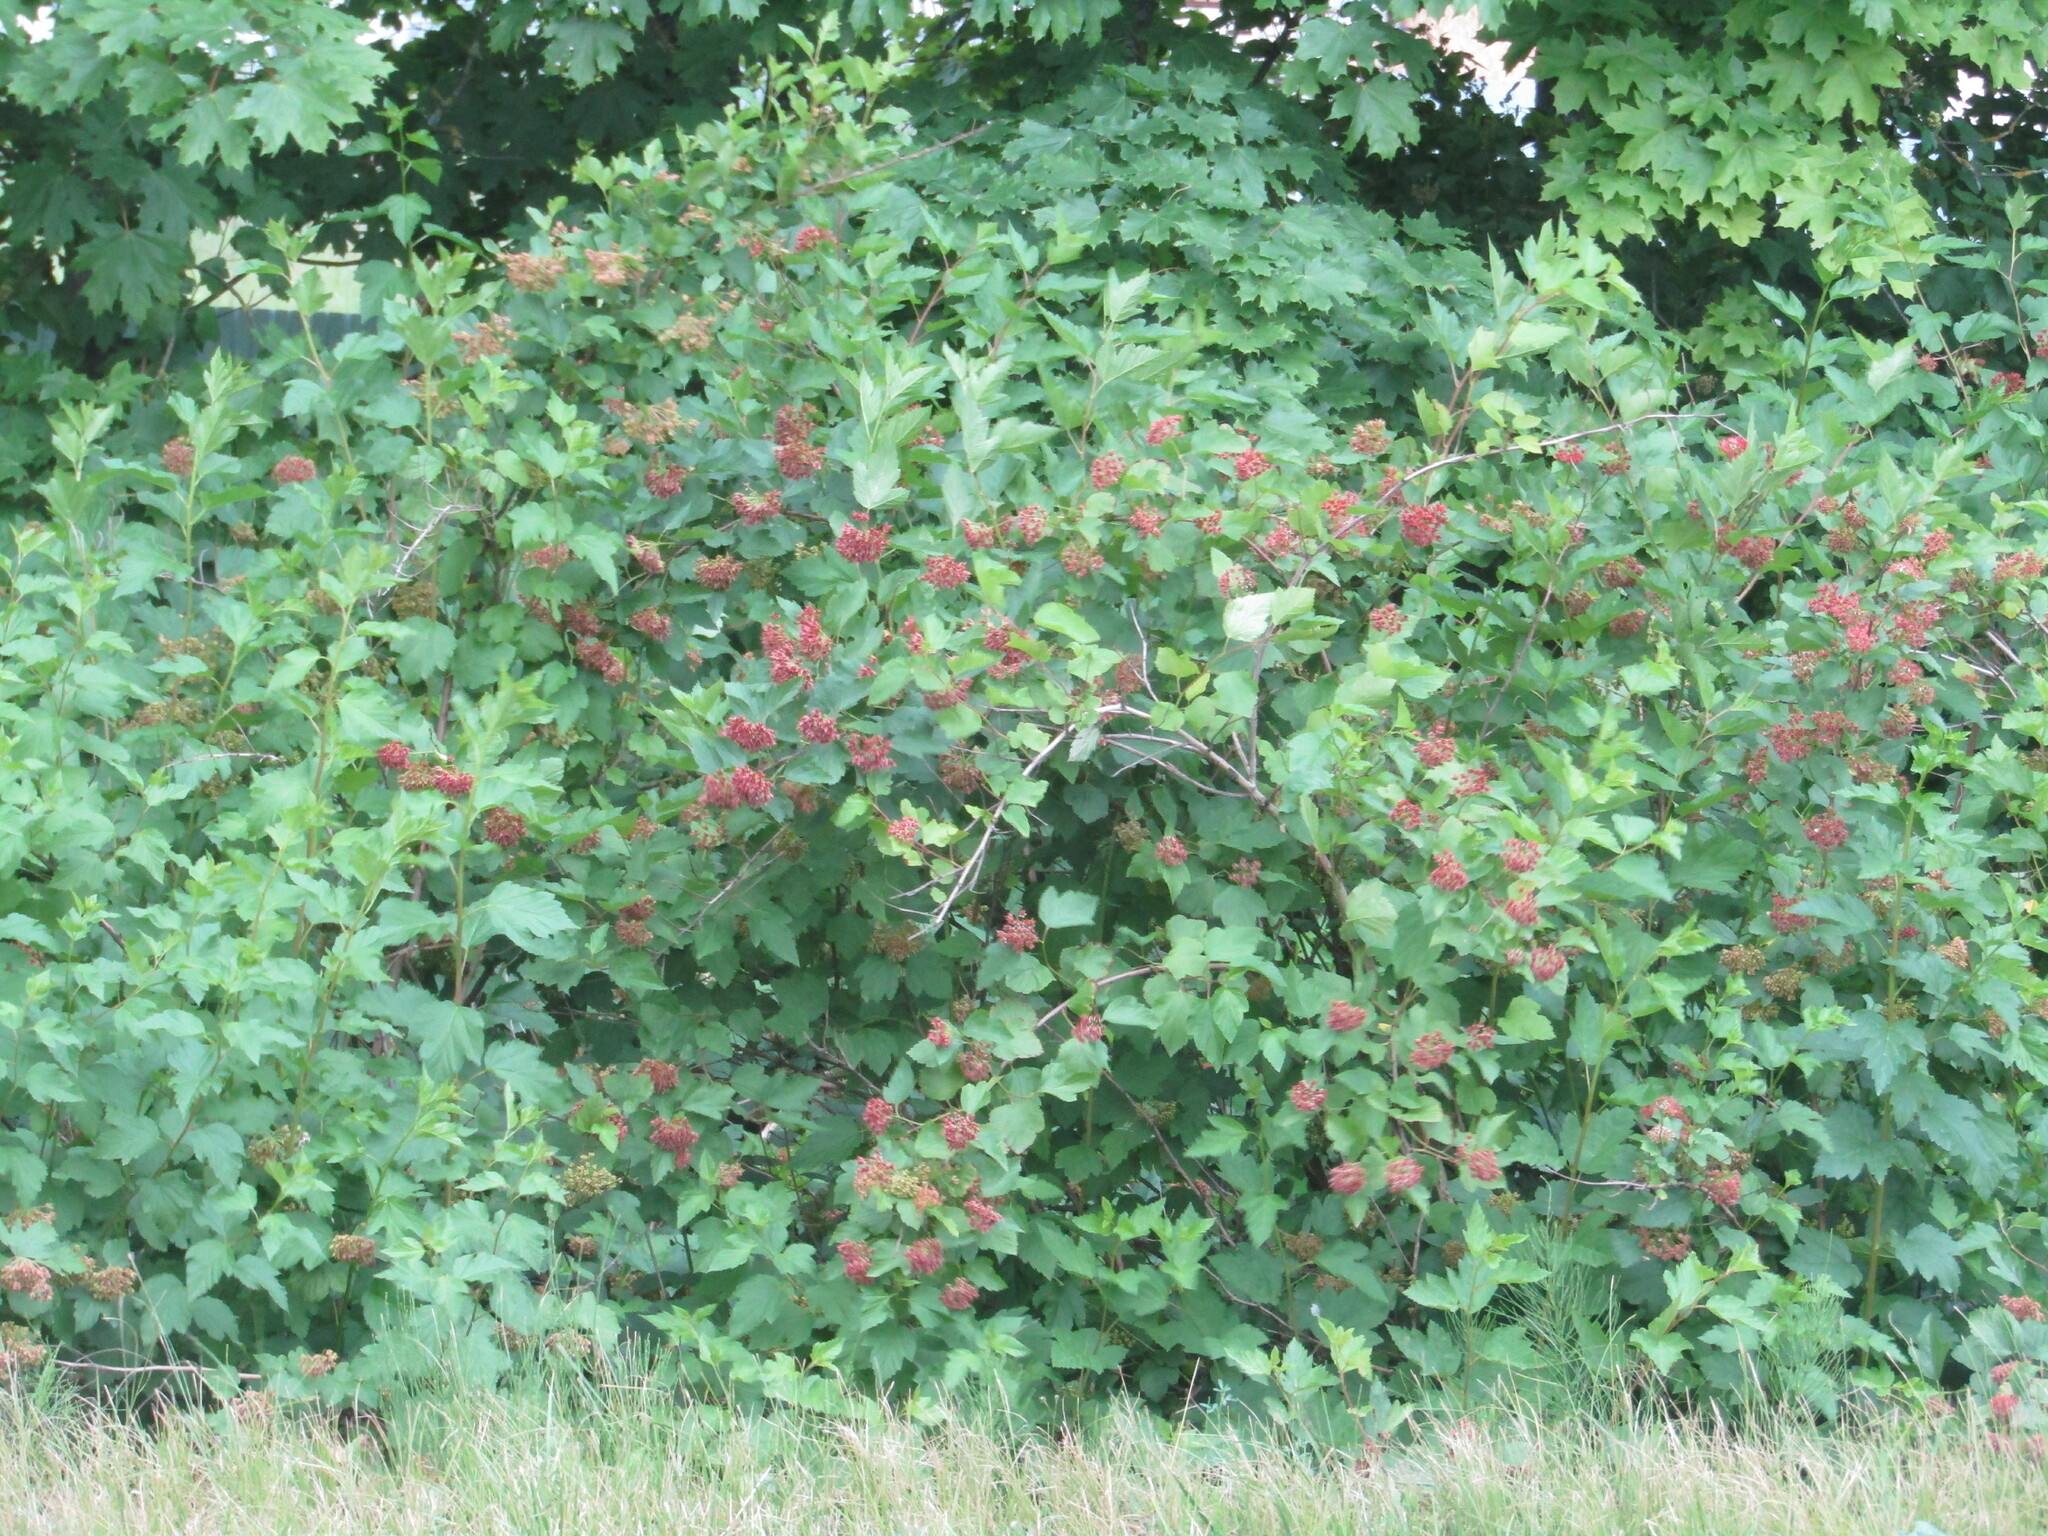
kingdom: Plantae
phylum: Tracheophyta
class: Magnoliopsida
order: Rosales
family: Rosaceae
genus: Physocarpus
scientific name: Physocarpus opulifolius
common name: Ninebark
